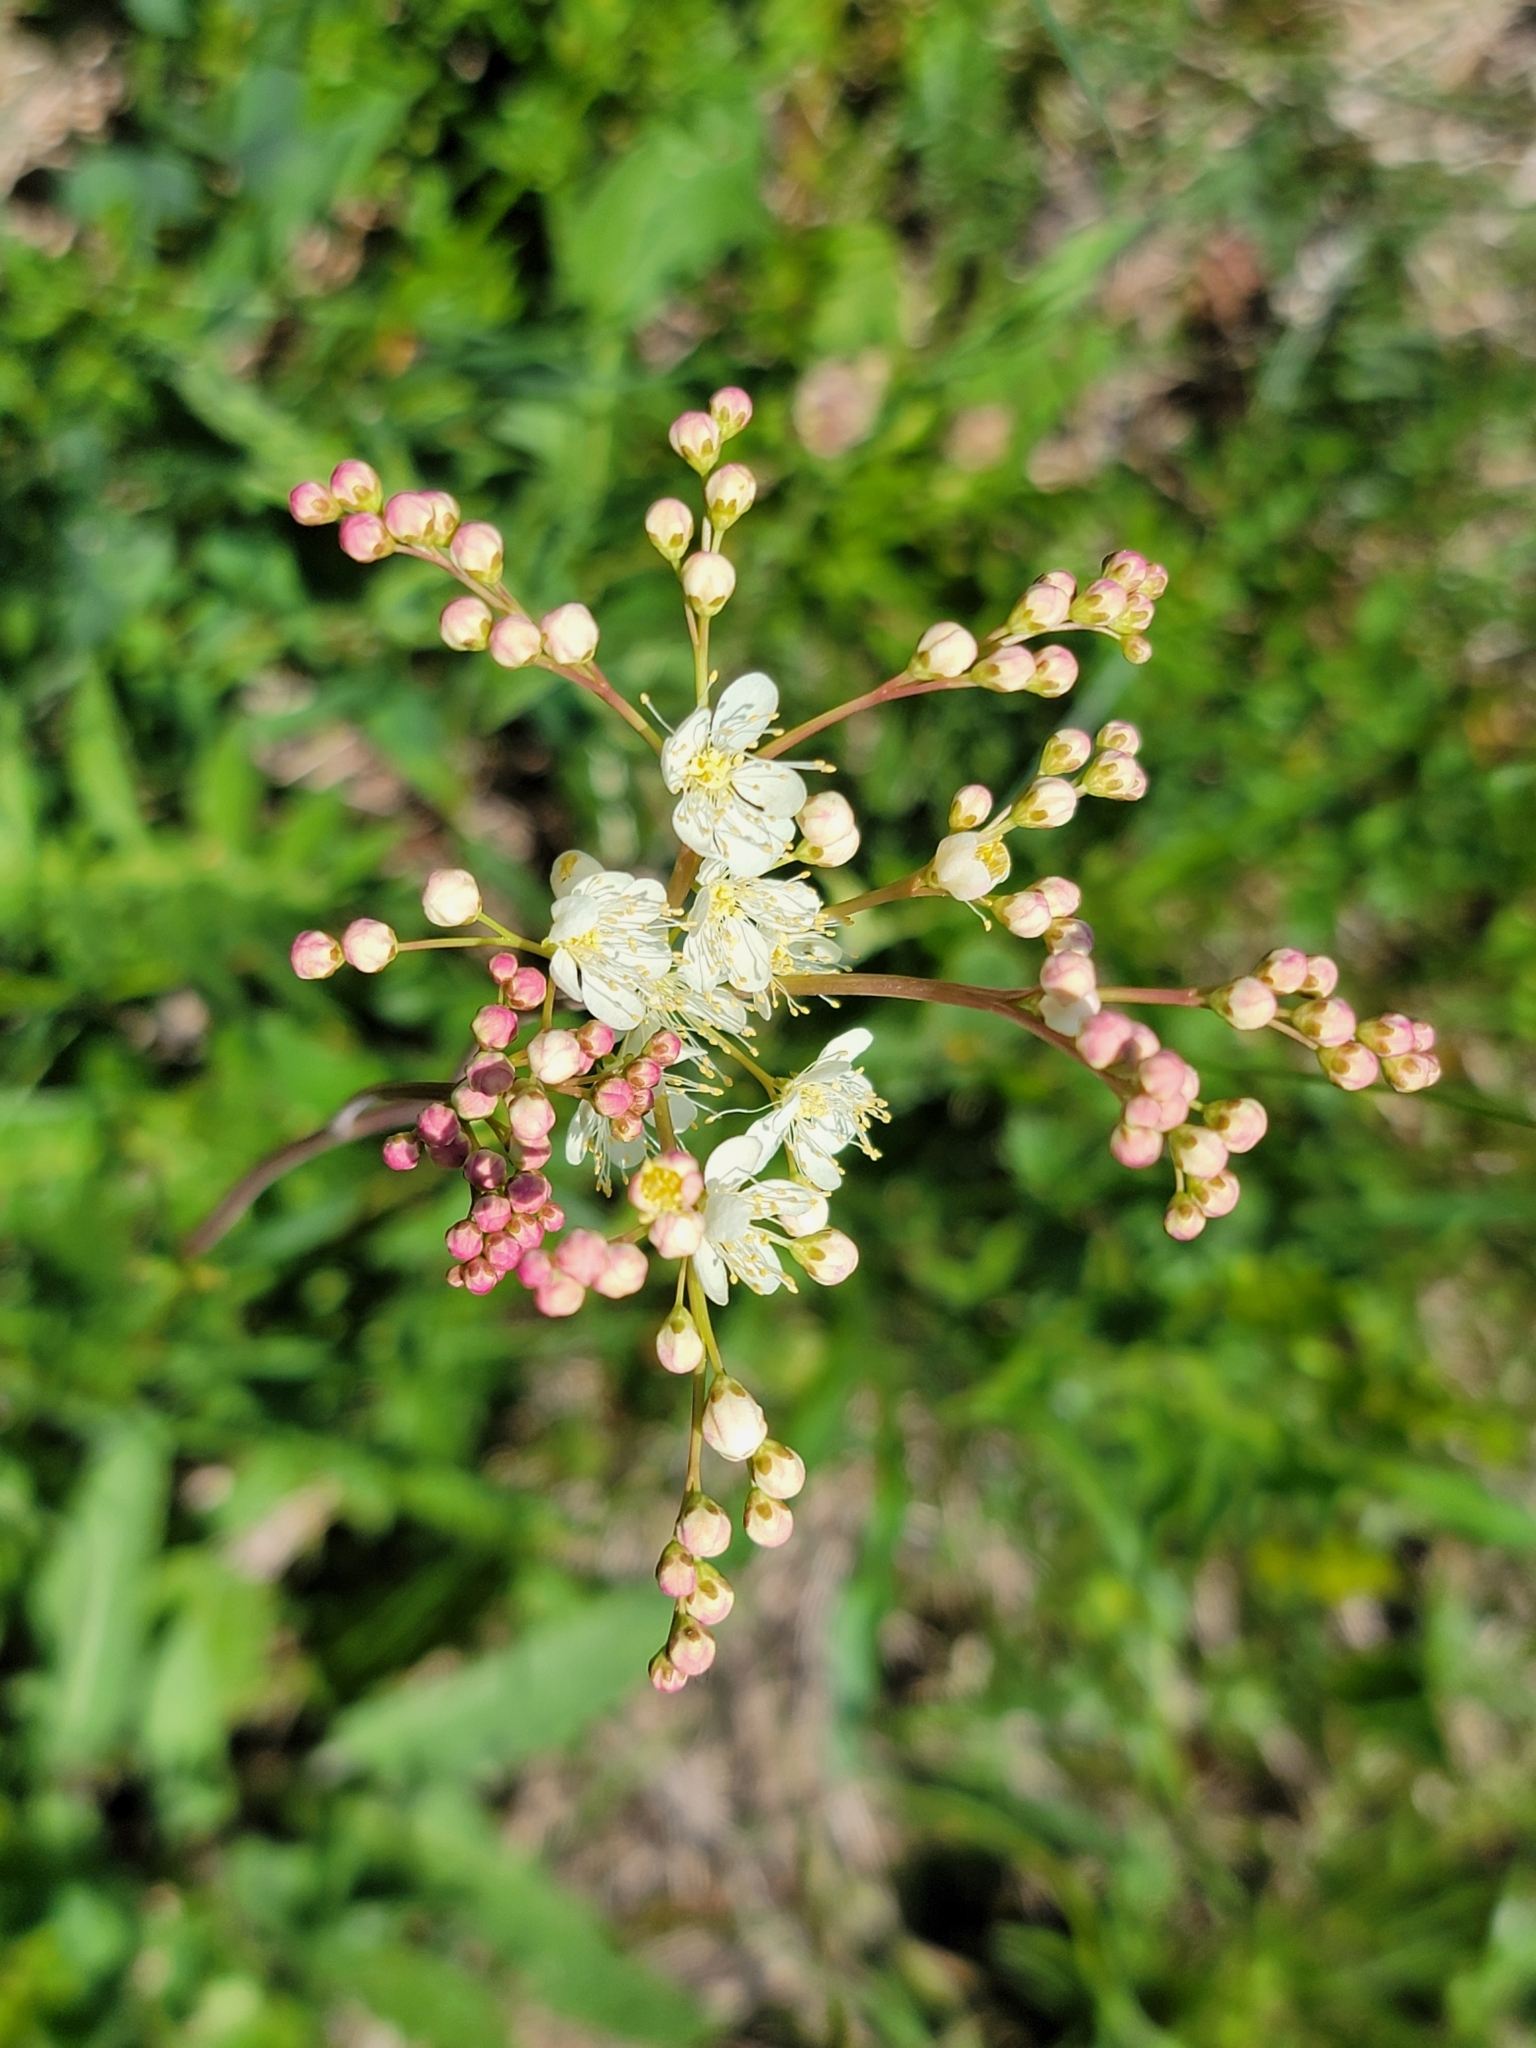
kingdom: Plantae
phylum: Tracheophyta
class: Magnoliopsida
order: Rosales
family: Rosaceae
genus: Filipendula
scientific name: Filipendula vulgaris
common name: Dropwort
